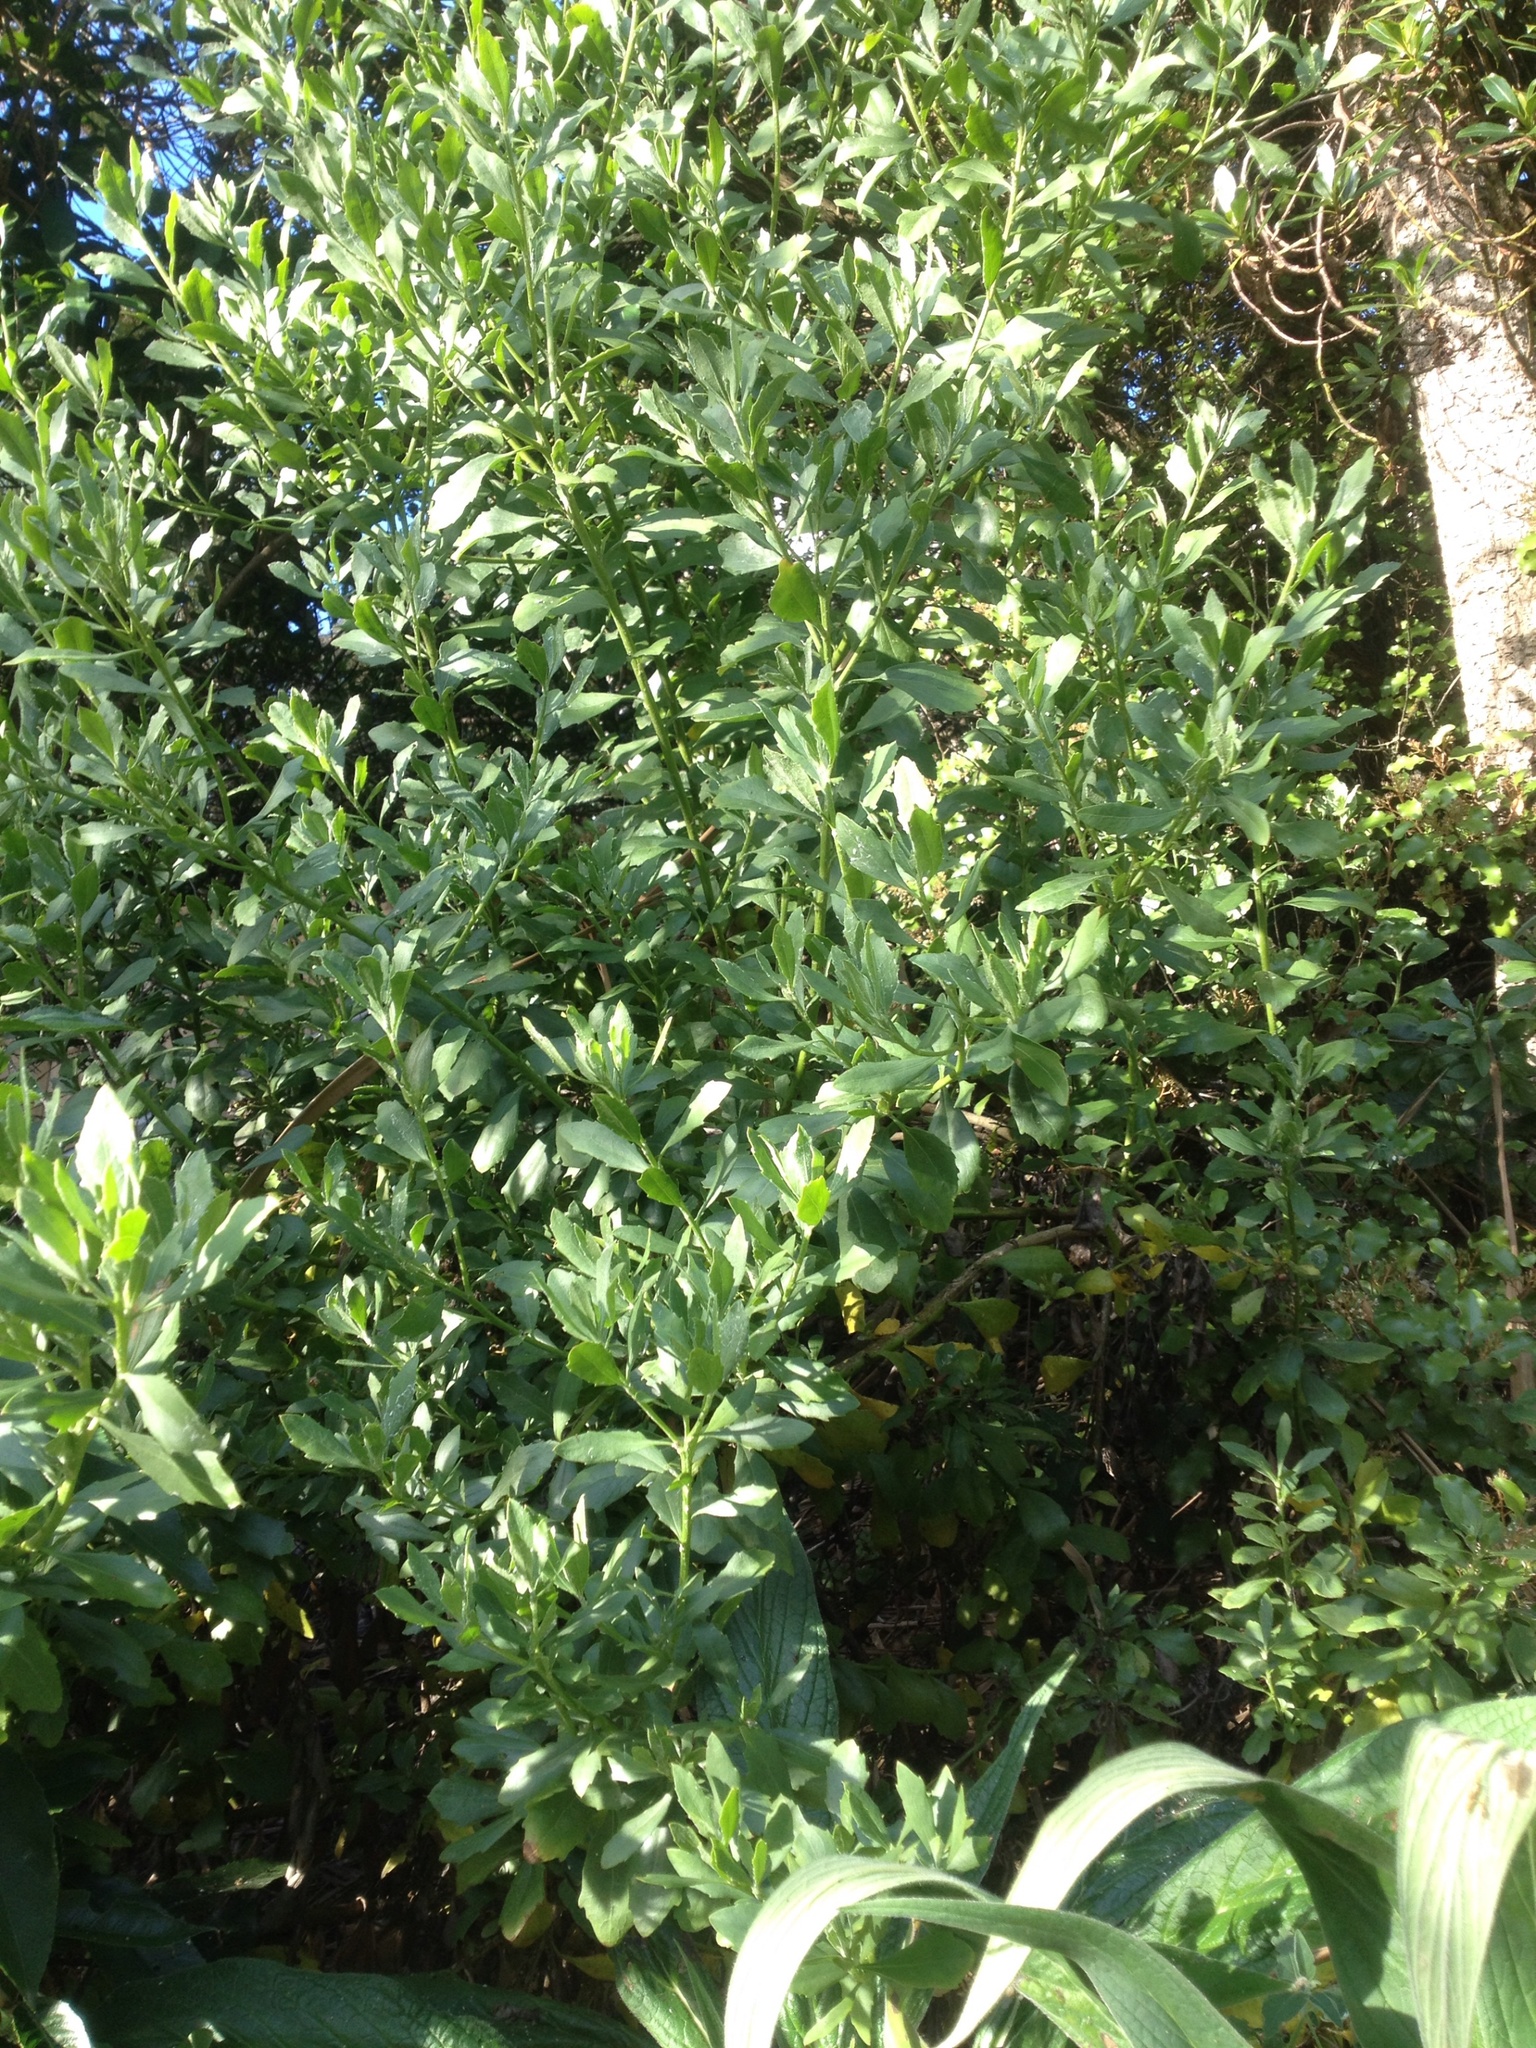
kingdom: Plantae
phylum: Tracheophyta
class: Magnoliopsida
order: Asterales
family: Asteraceae
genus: Osteospermum
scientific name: Osteospermum moniliferum
